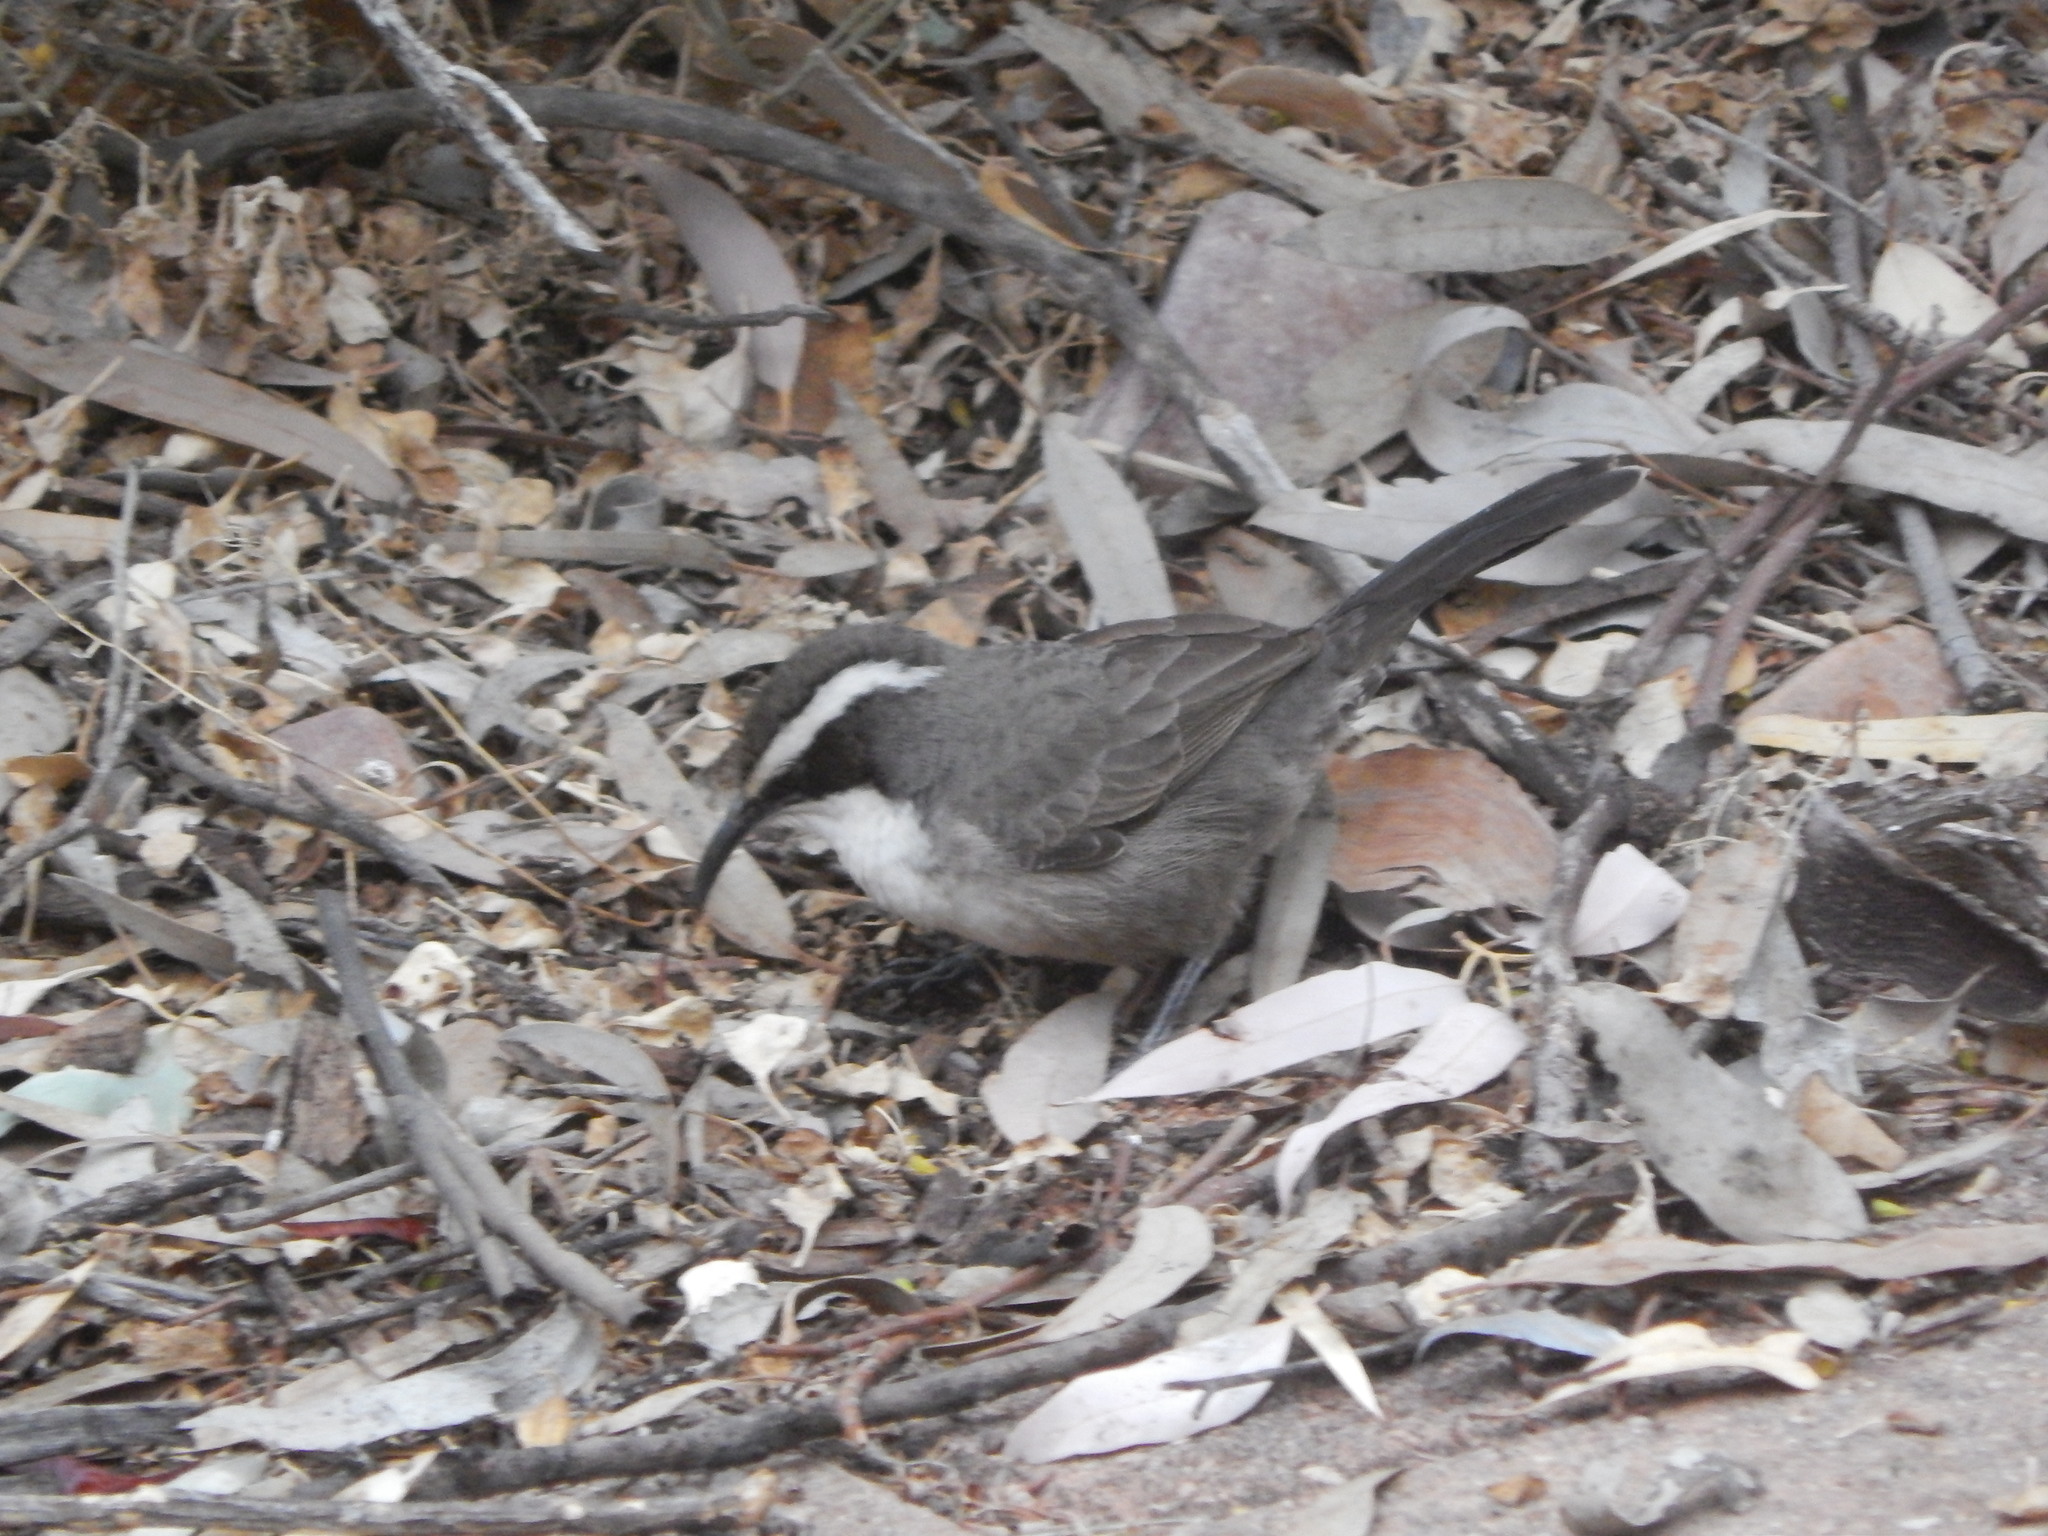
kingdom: Animalia
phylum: Chordata
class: Aves
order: Passeriformes
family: Pomatostomidae
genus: Pomatostomus
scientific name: Pomatostomus superciliosus
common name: White-browed babbler
